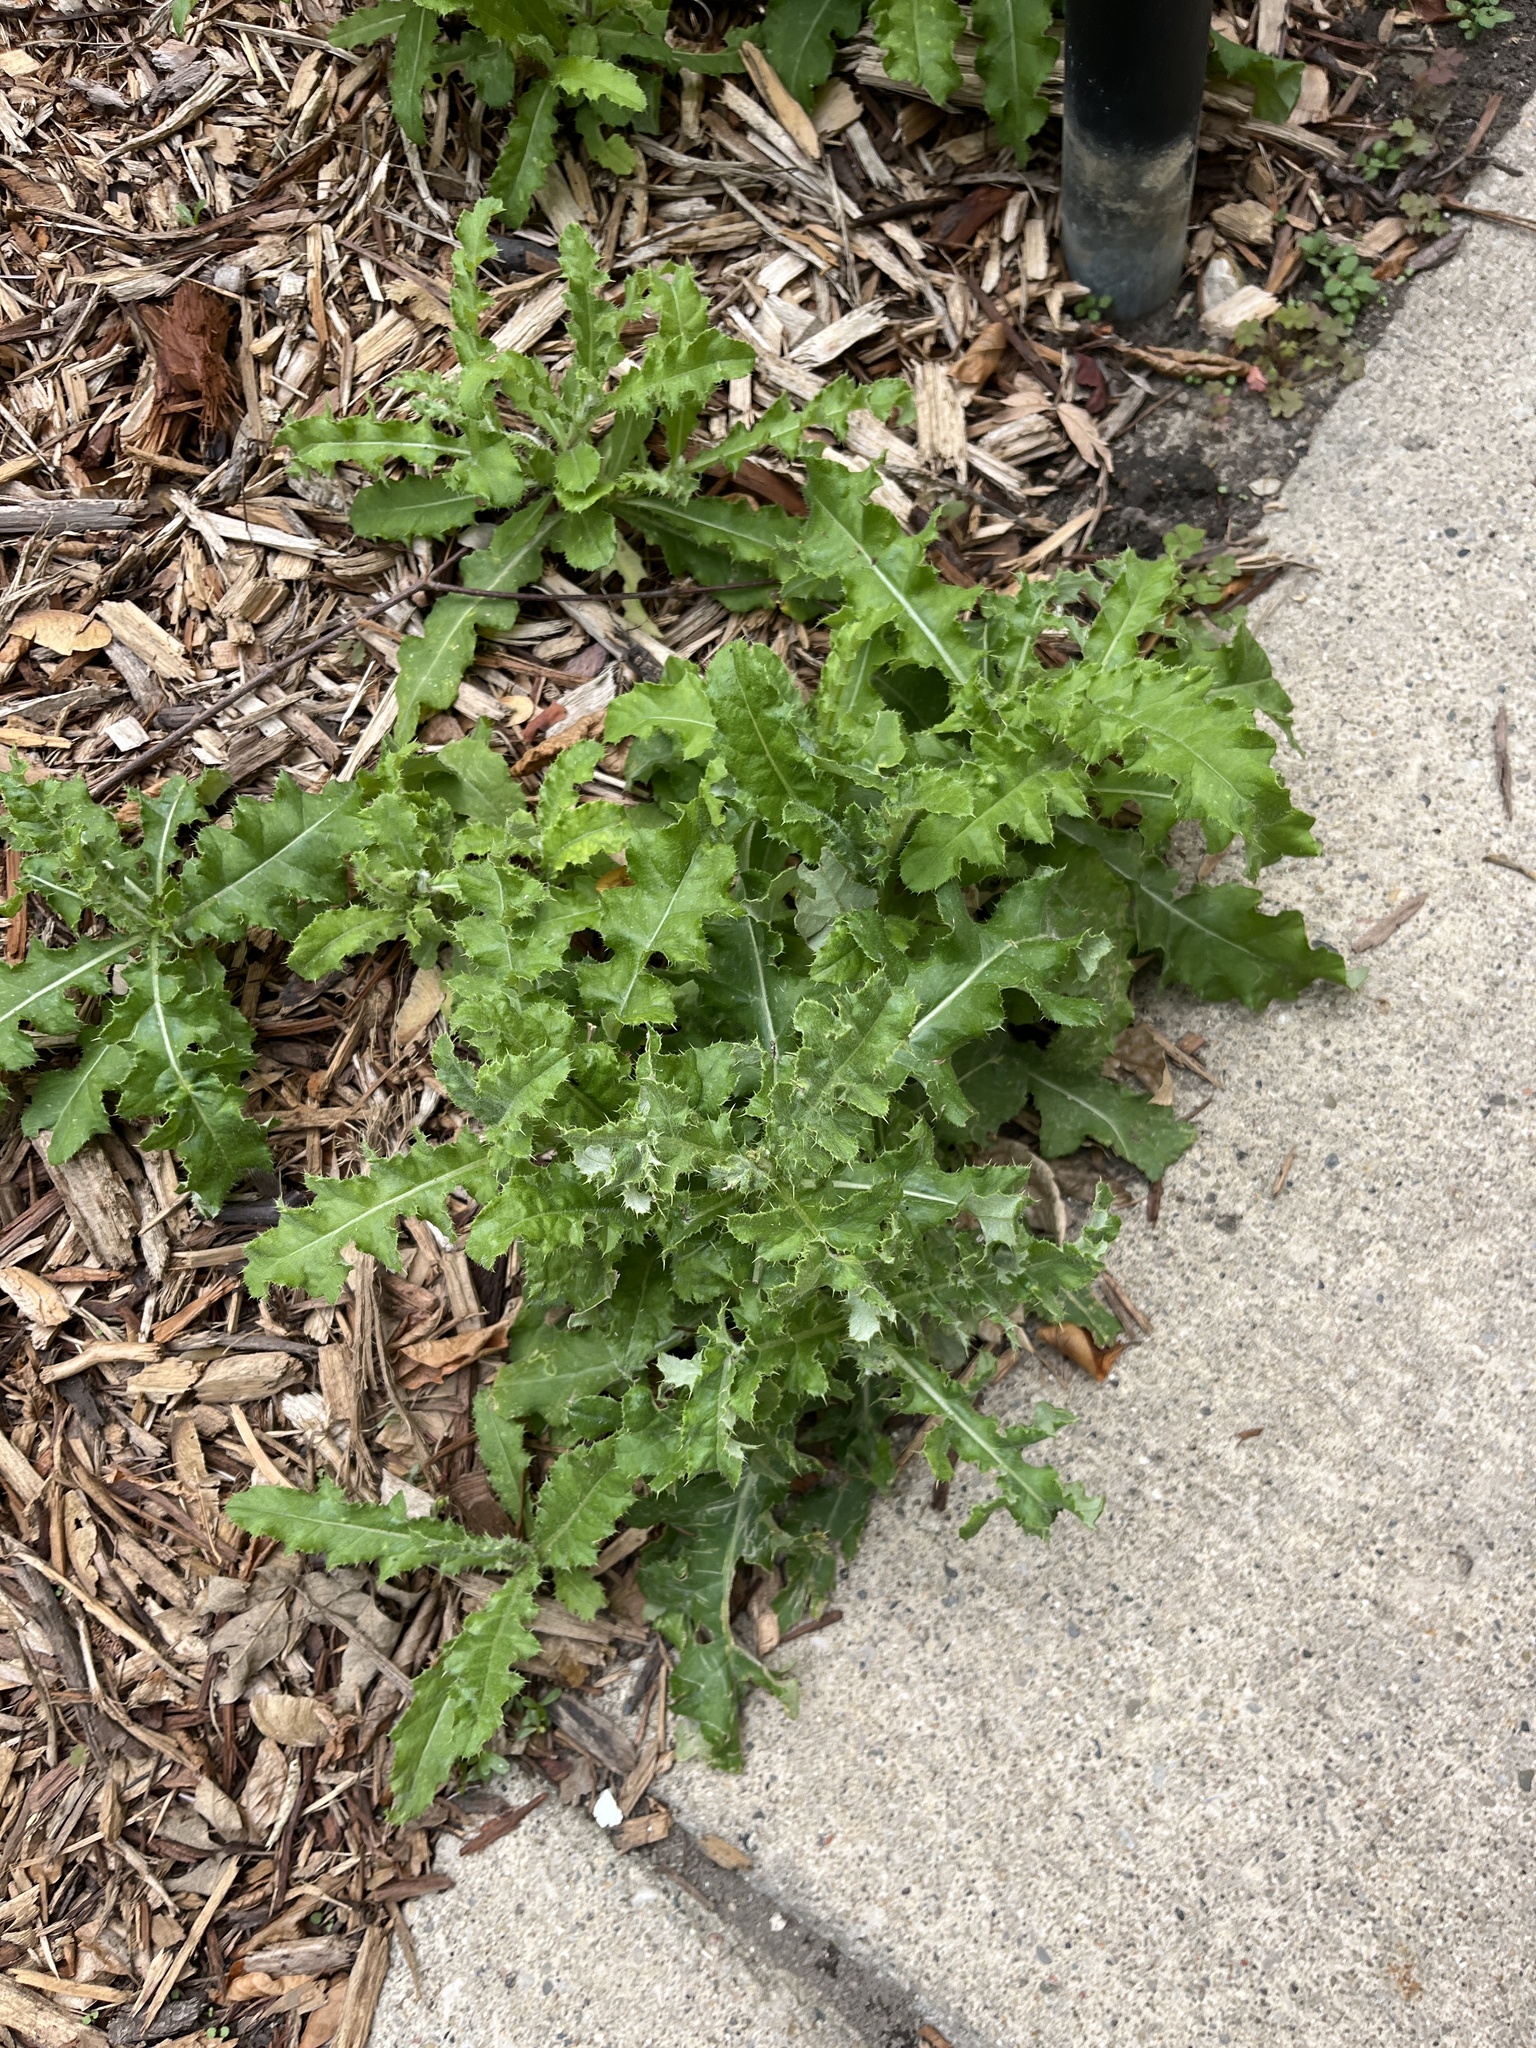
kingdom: Plantae
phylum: Tracheophyta
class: Magnoliopsida
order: Asterales
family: Asteraceae
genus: Cirsium
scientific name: Cirsium arvense
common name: Creeping thistle
